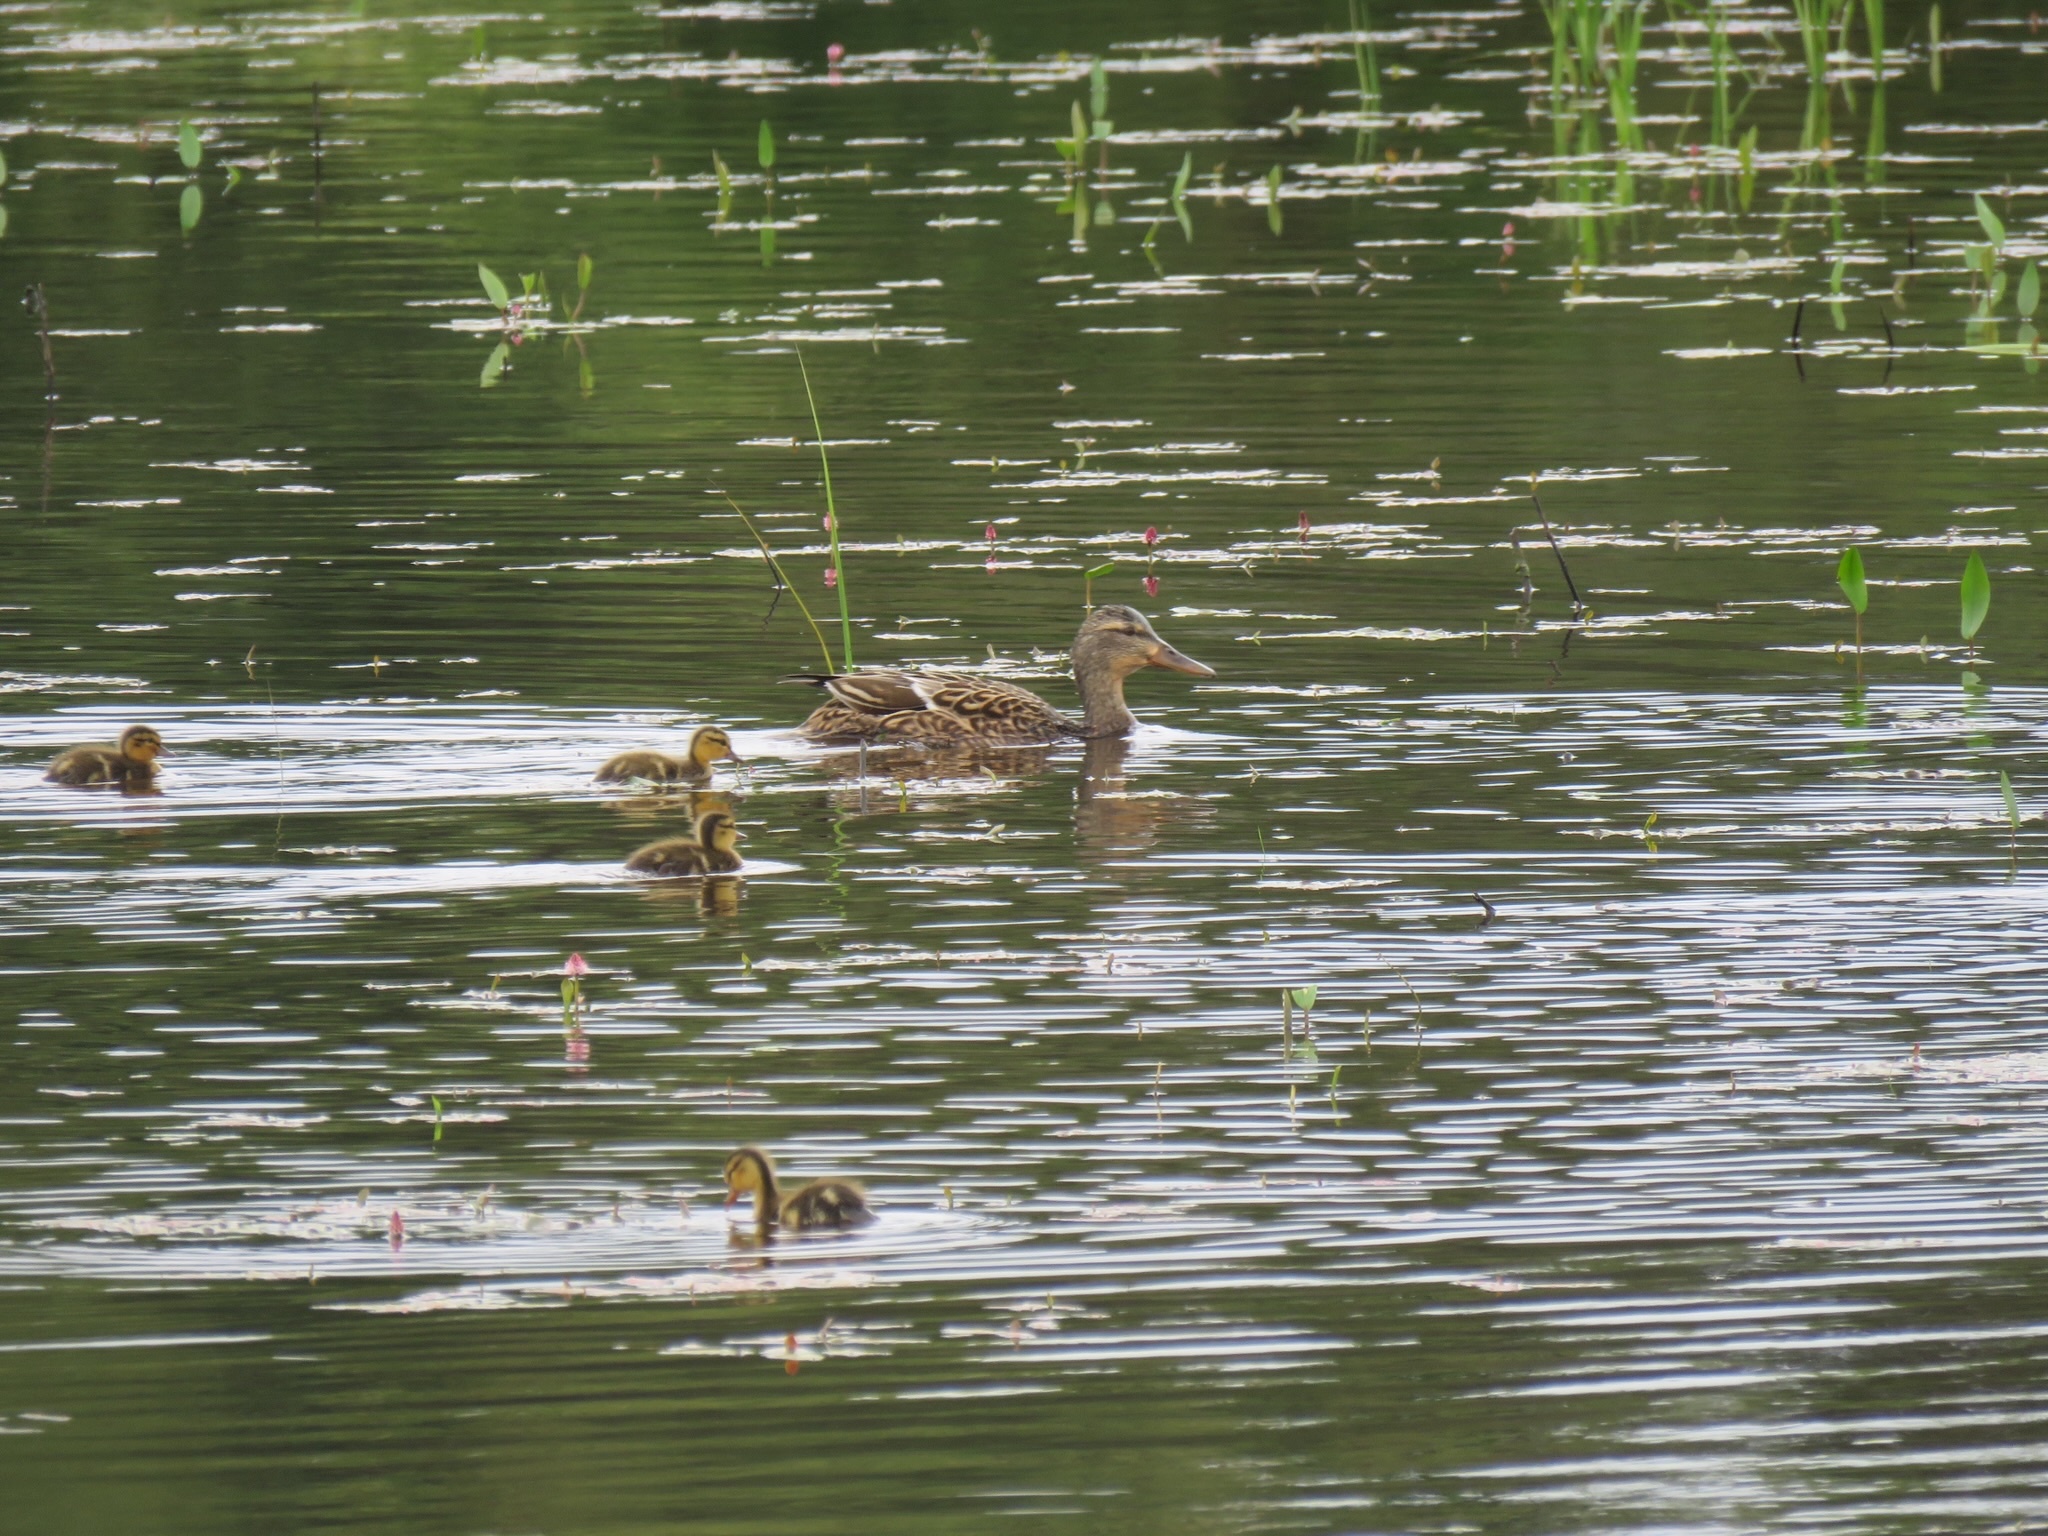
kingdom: Animalia
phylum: Chordata
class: Aves
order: Anseriformes
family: Anatidae
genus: Anas
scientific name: Anas platyrhynchos
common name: Mallard
